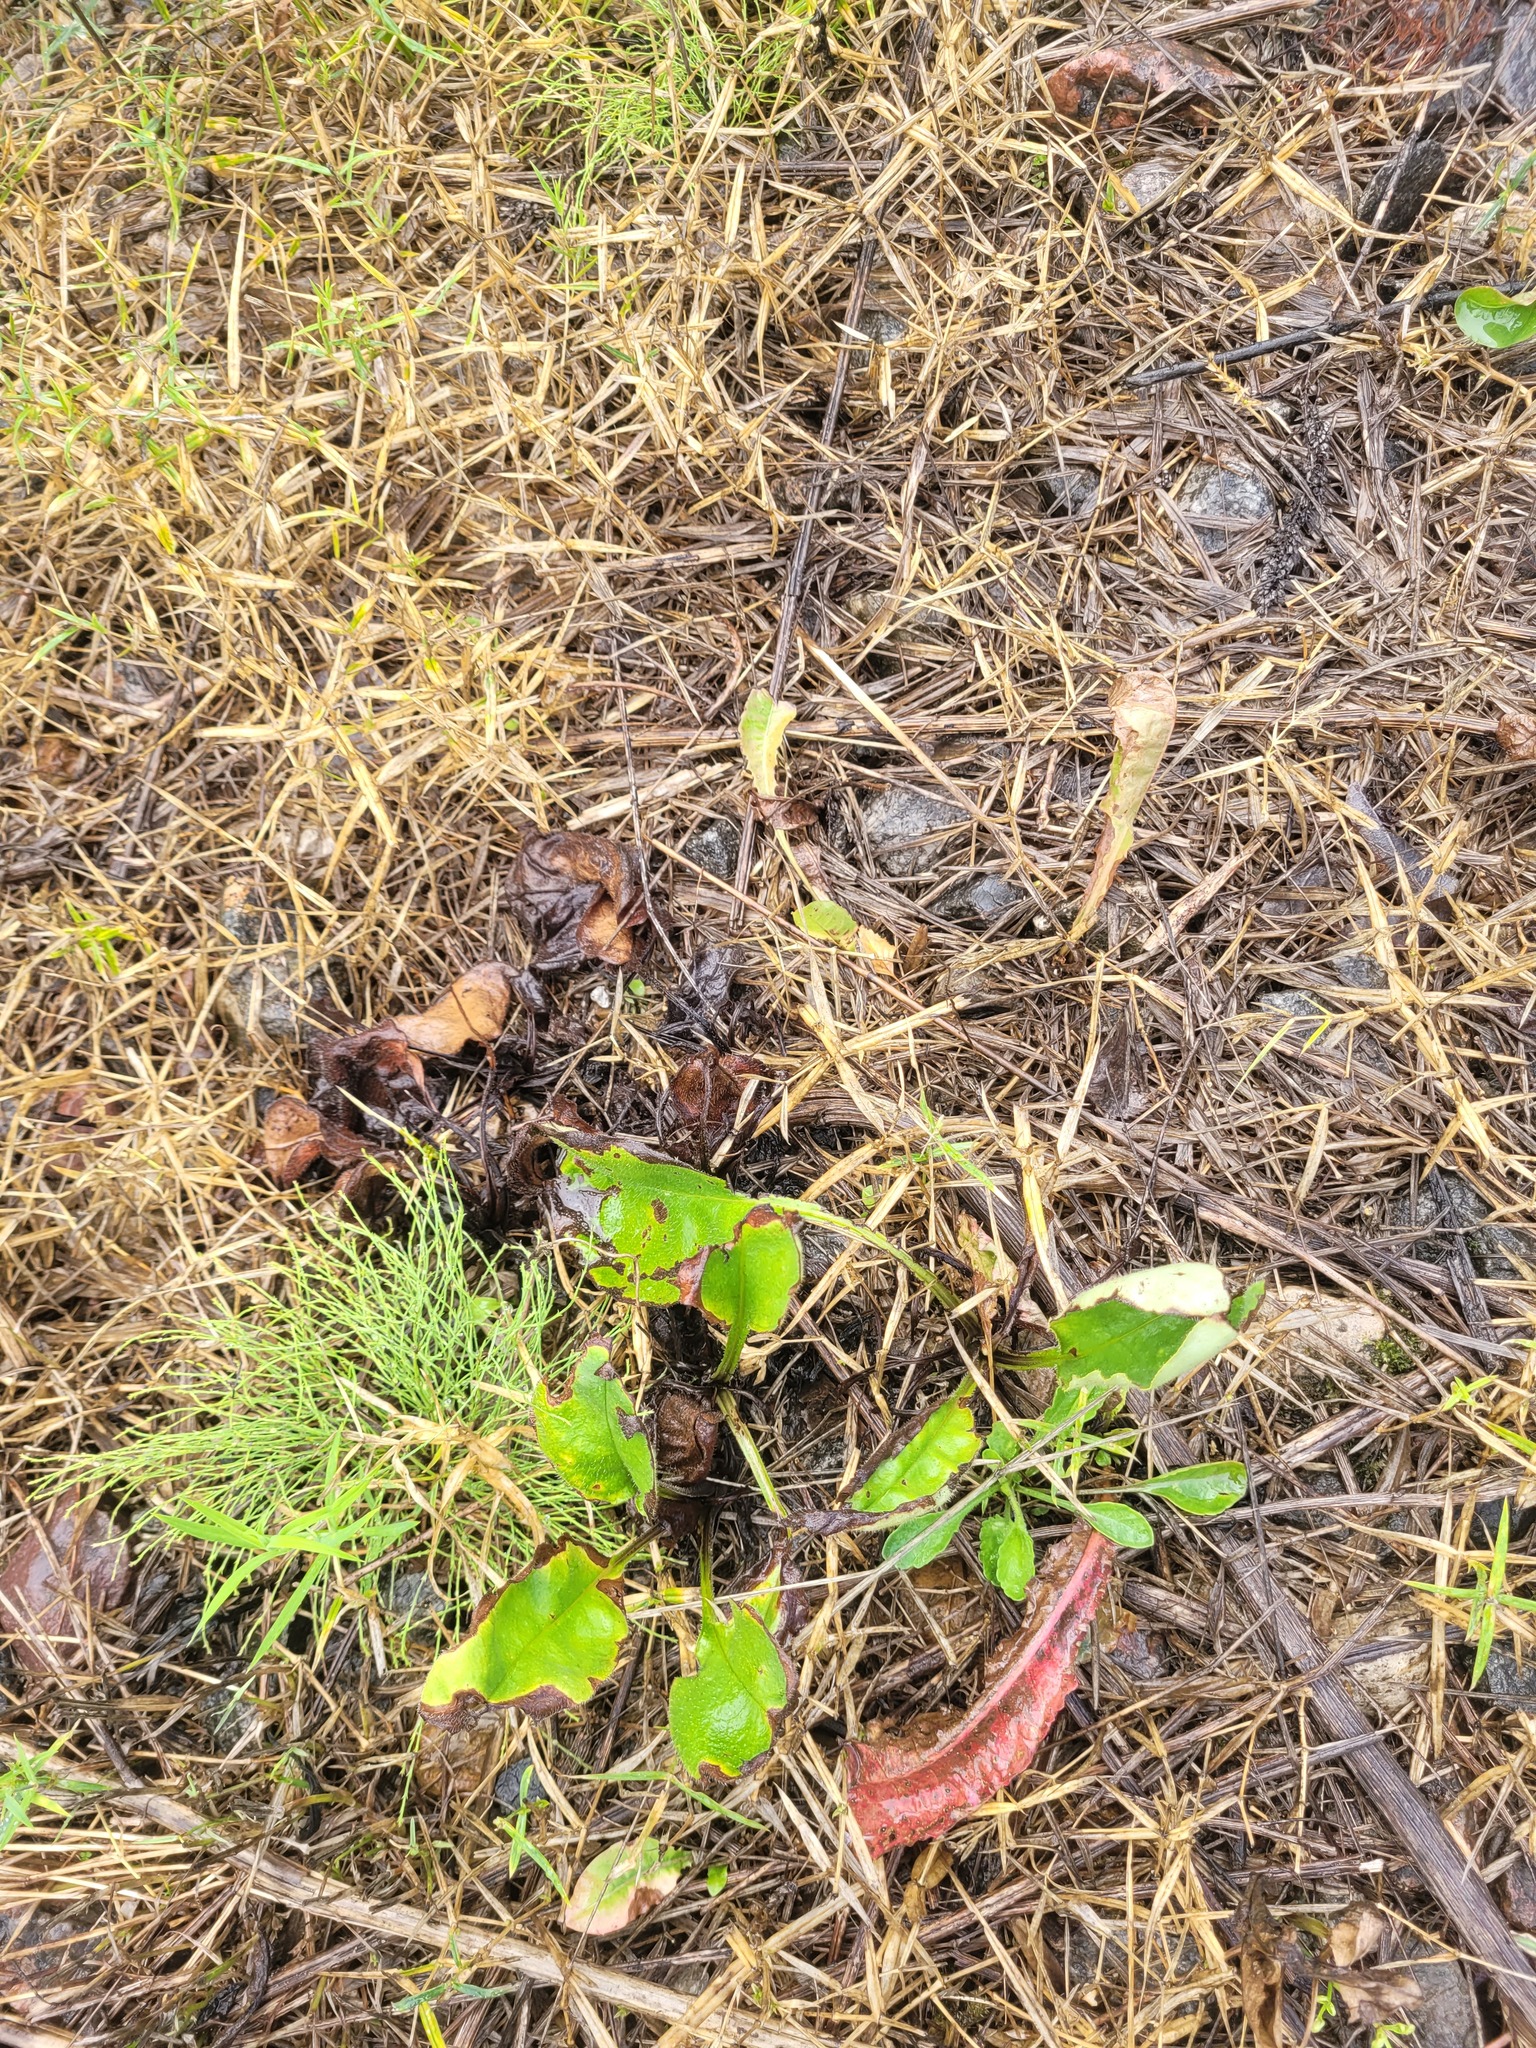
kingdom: Plantae
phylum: Tracheophyta
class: Magnoliopsida
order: Caryophyllales
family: Caryophyllaceae
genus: Rabelera
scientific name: Rabelera holostea
